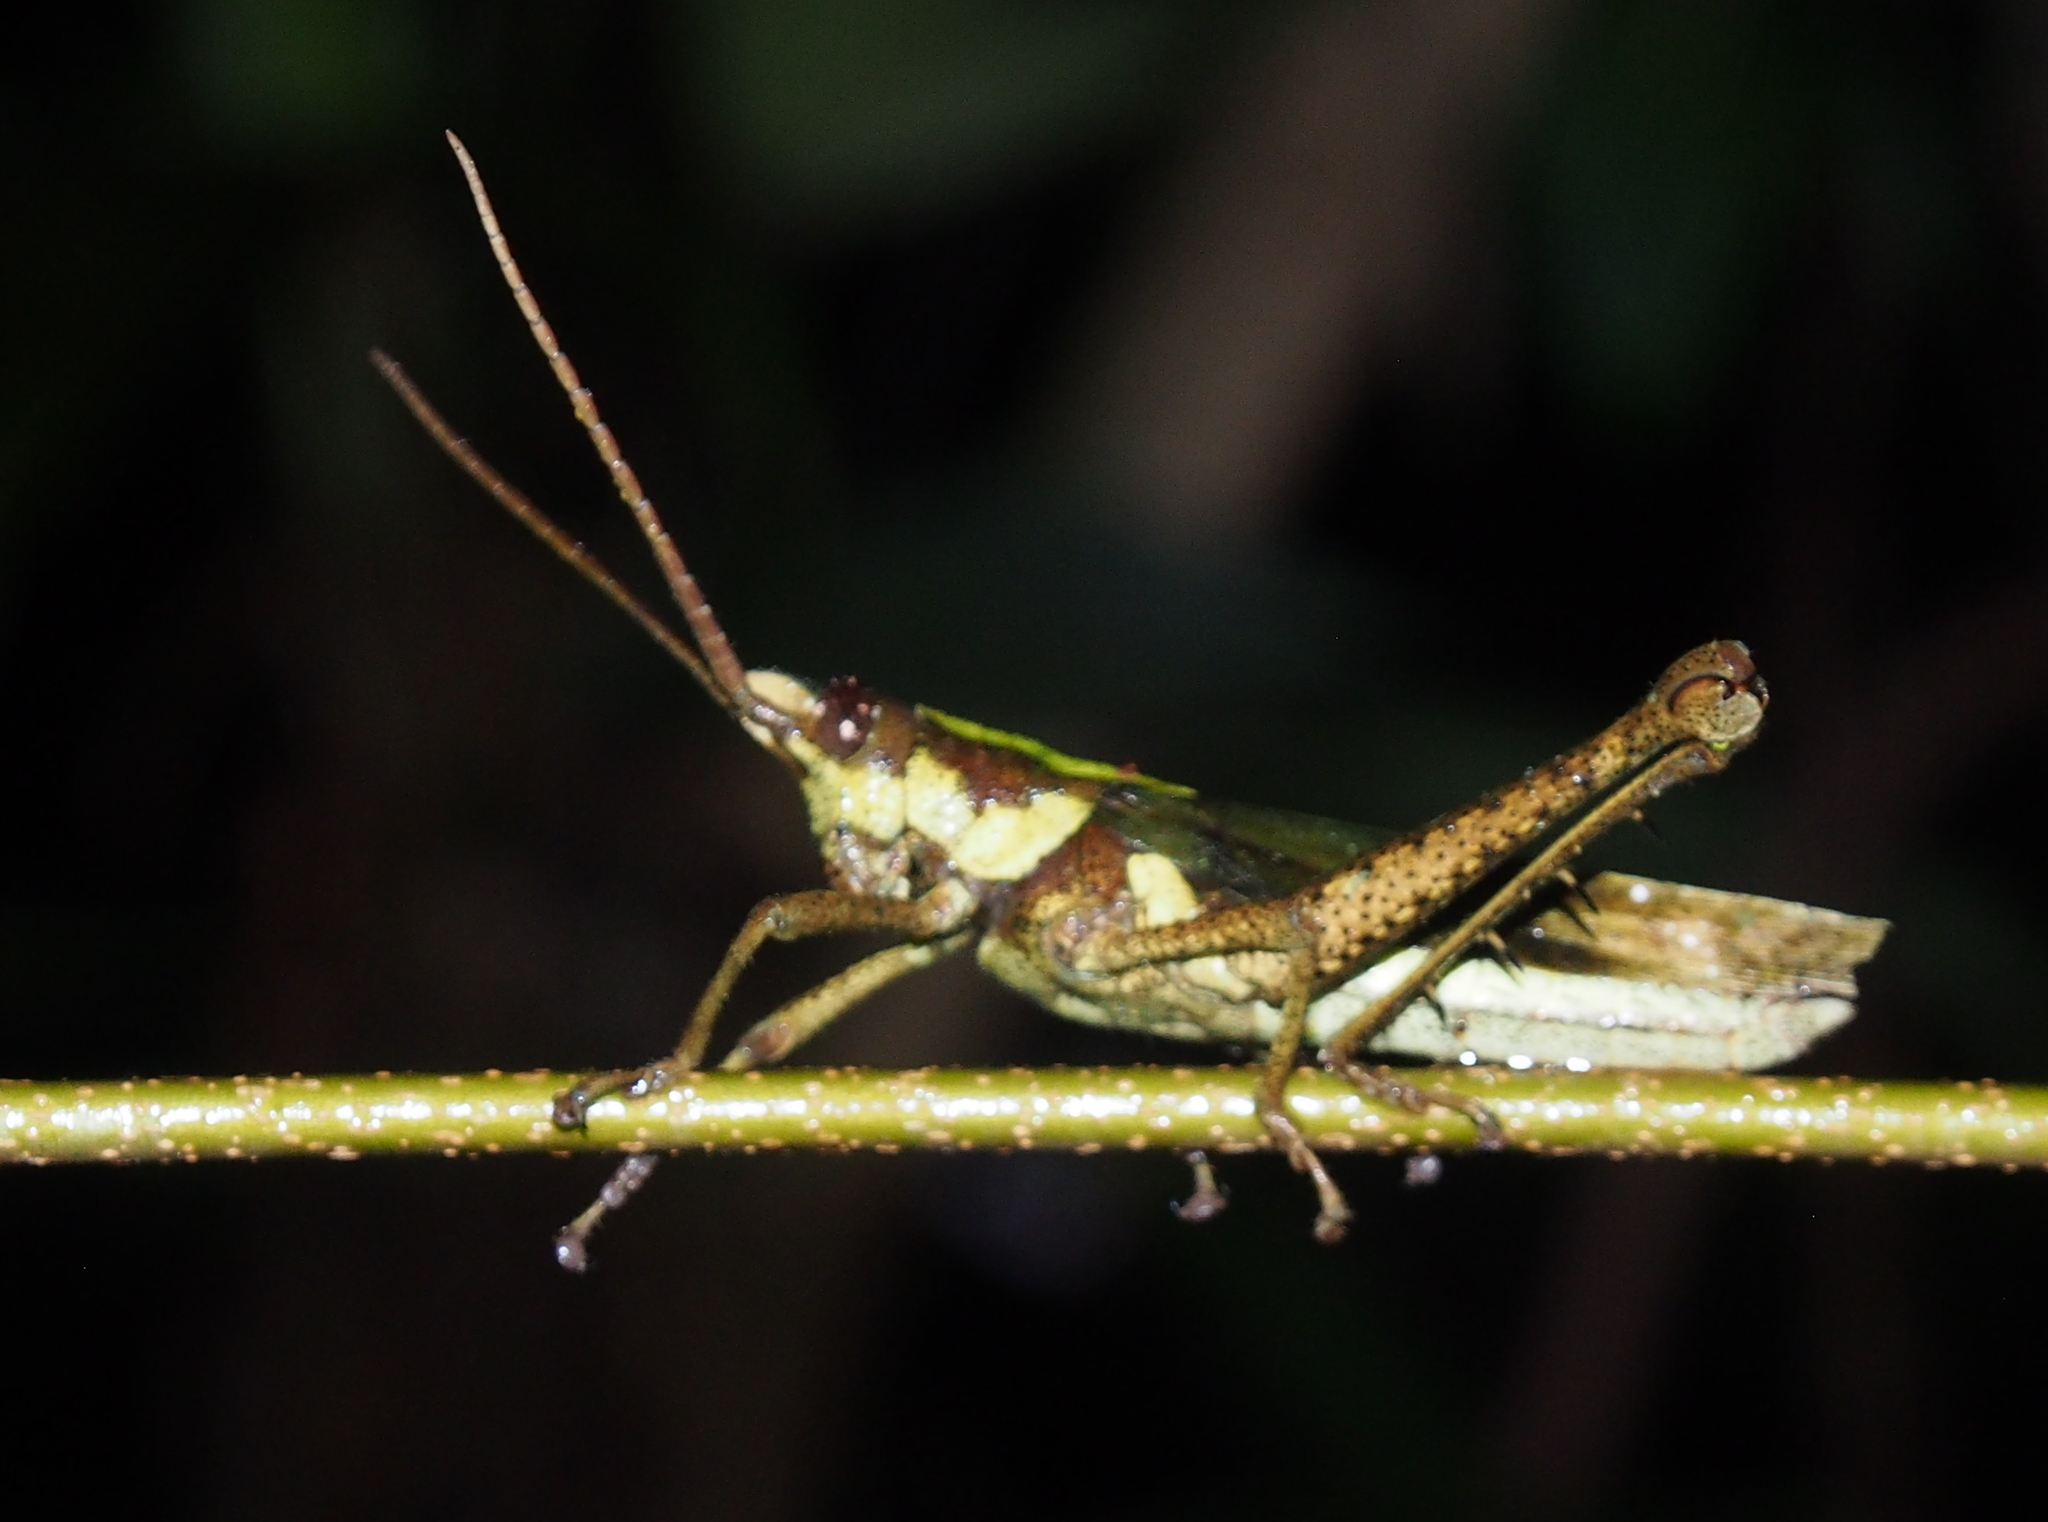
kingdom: Animalia
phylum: Arthropoda
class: Insecta
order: Orthoptera
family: Romaleidae
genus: Munatia
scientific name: Munatia biolleyi
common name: Costa rica tree grasshopper
